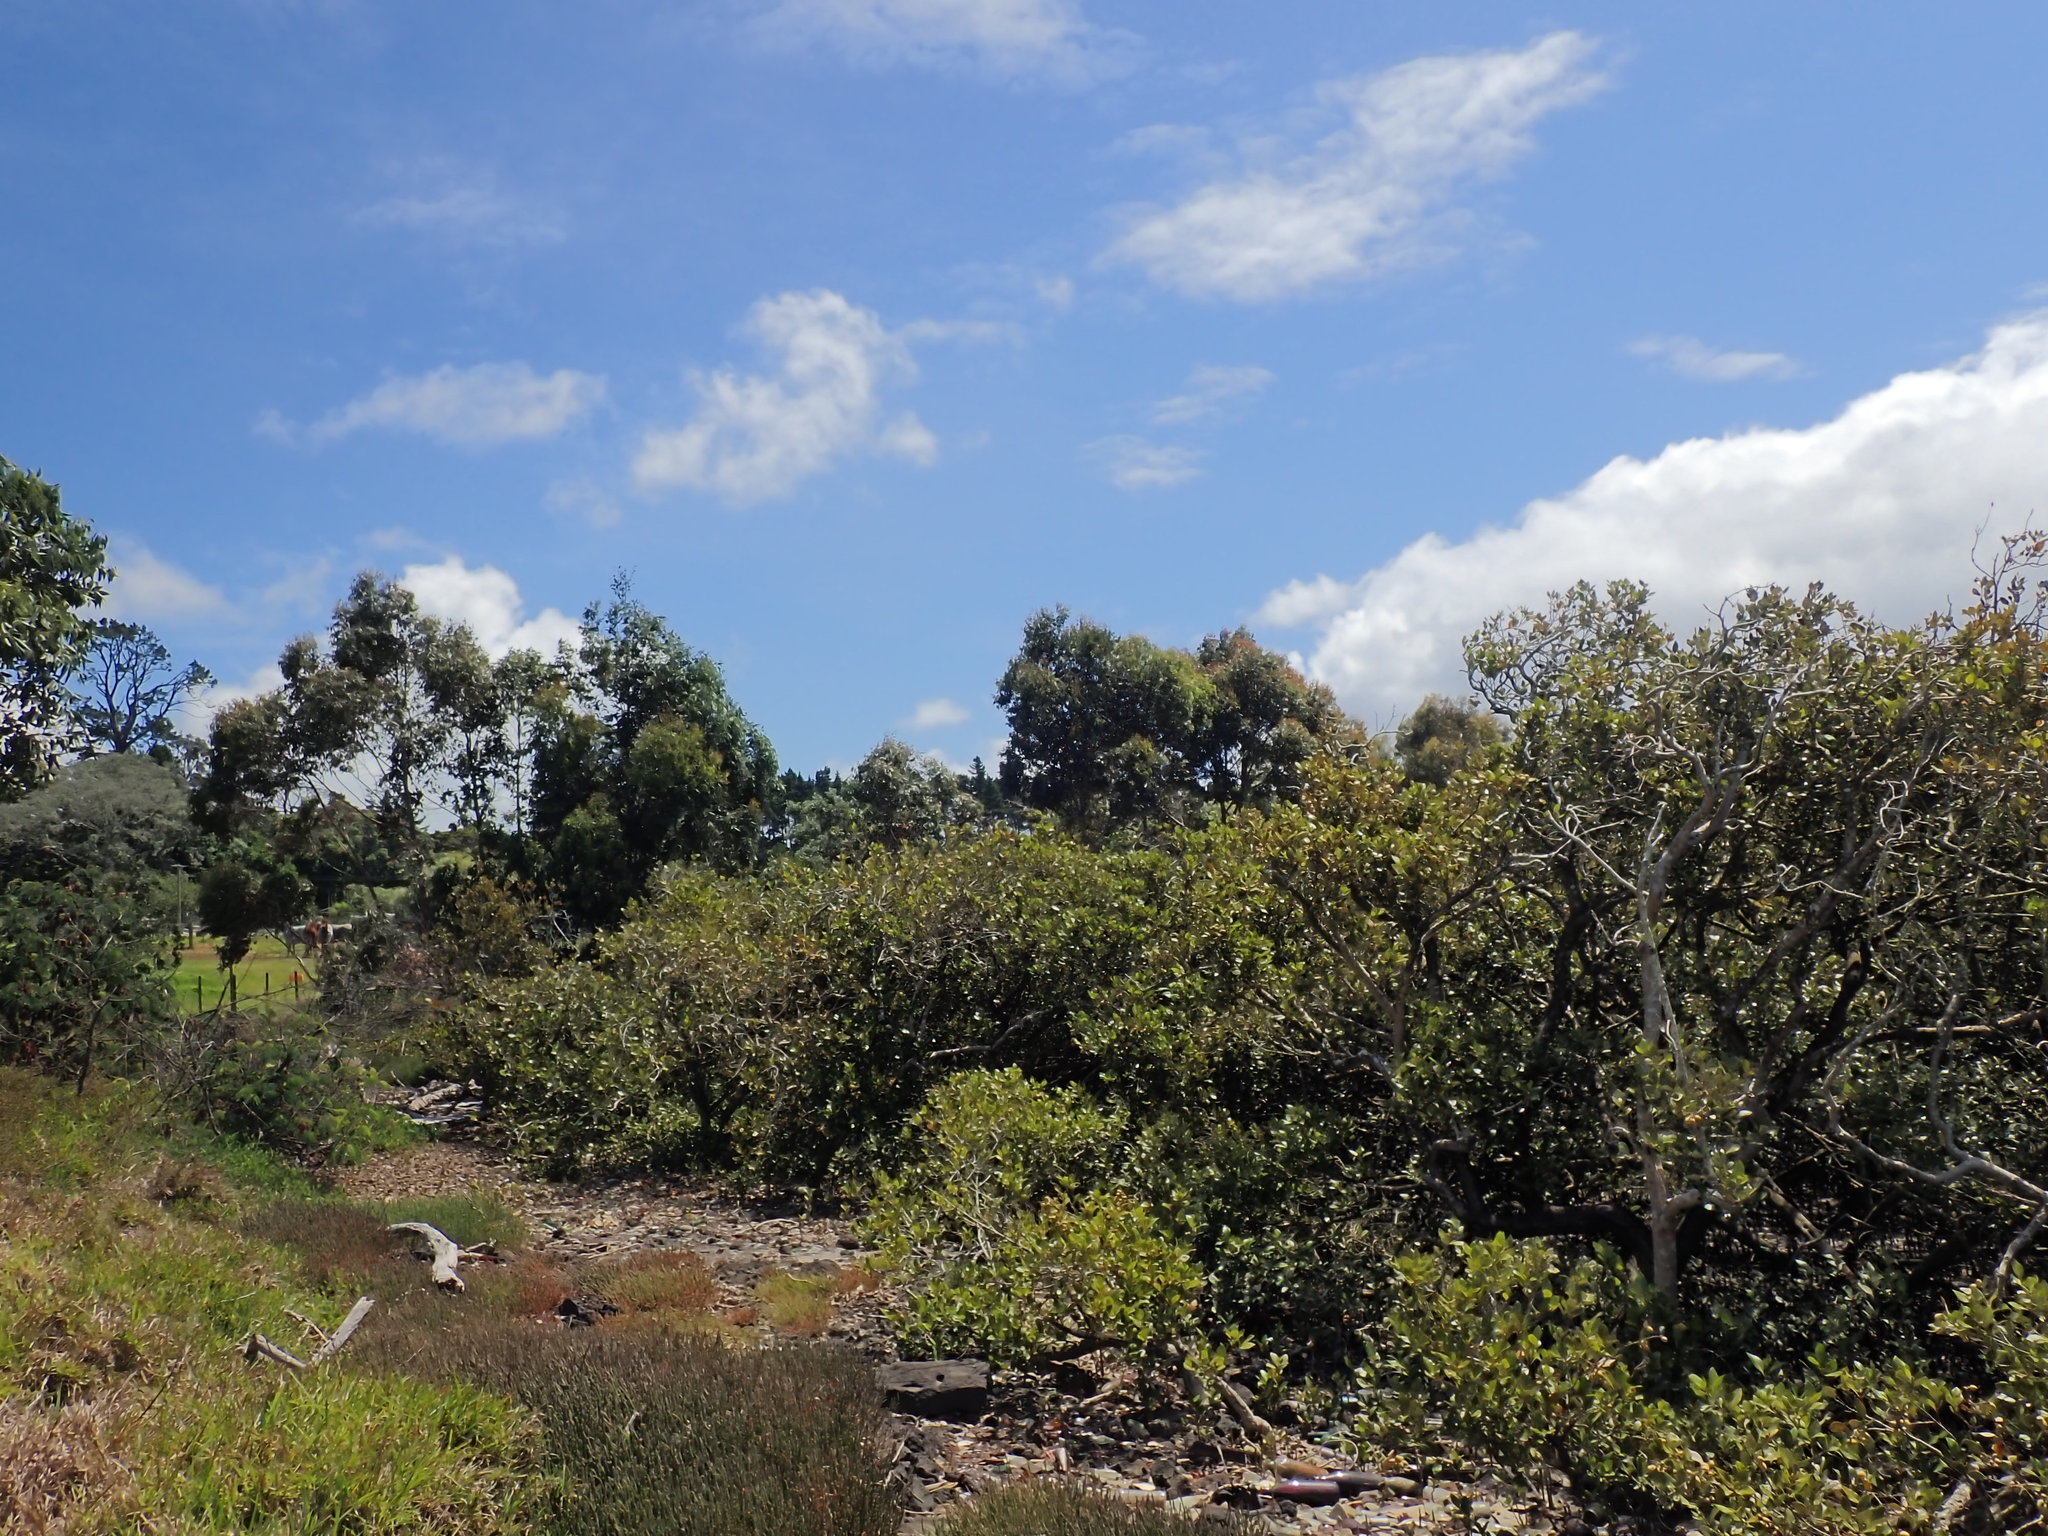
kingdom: Plantae
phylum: Tracheophyta
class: Magnoliopsida
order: Lamiales
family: Acanthaceae
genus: Avicennia
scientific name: Avicennia marina
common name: Gray mangrove
